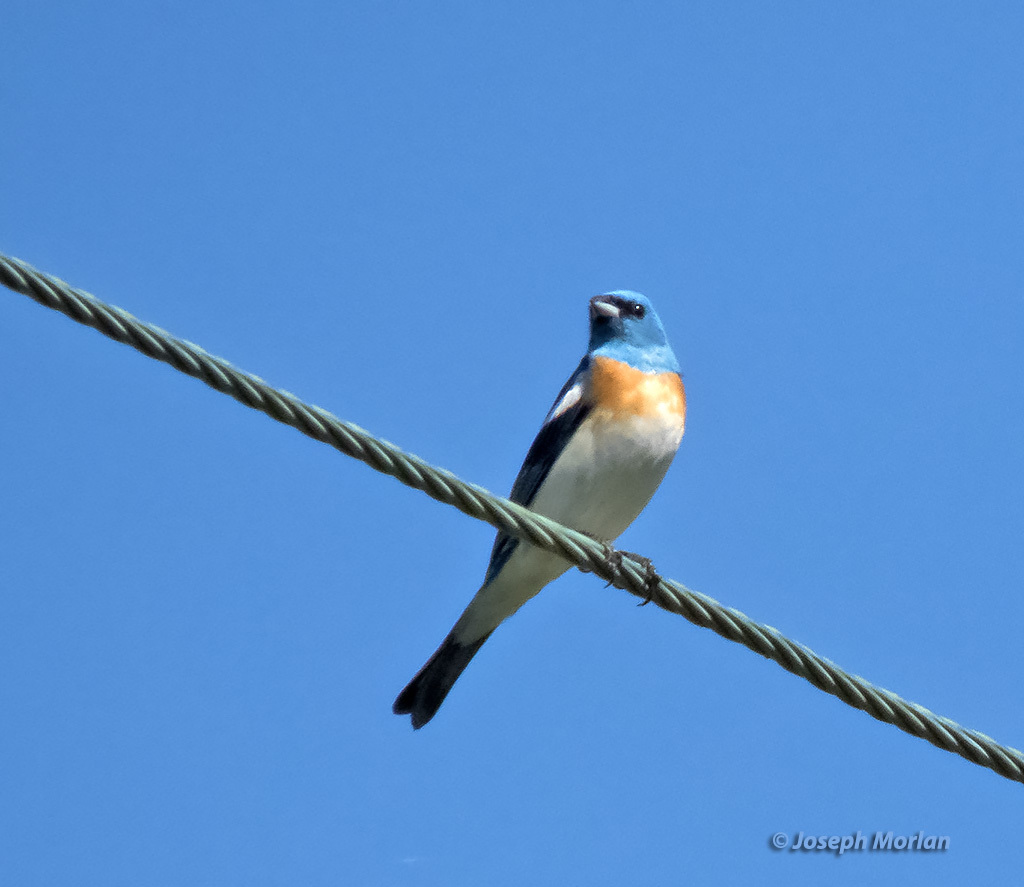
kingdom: Animalia
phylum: Chordata
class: Aves
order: Passeriformes
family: Cardinalidae
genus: Passerina
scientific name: Passerina amoena
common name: Lazuli bunting
